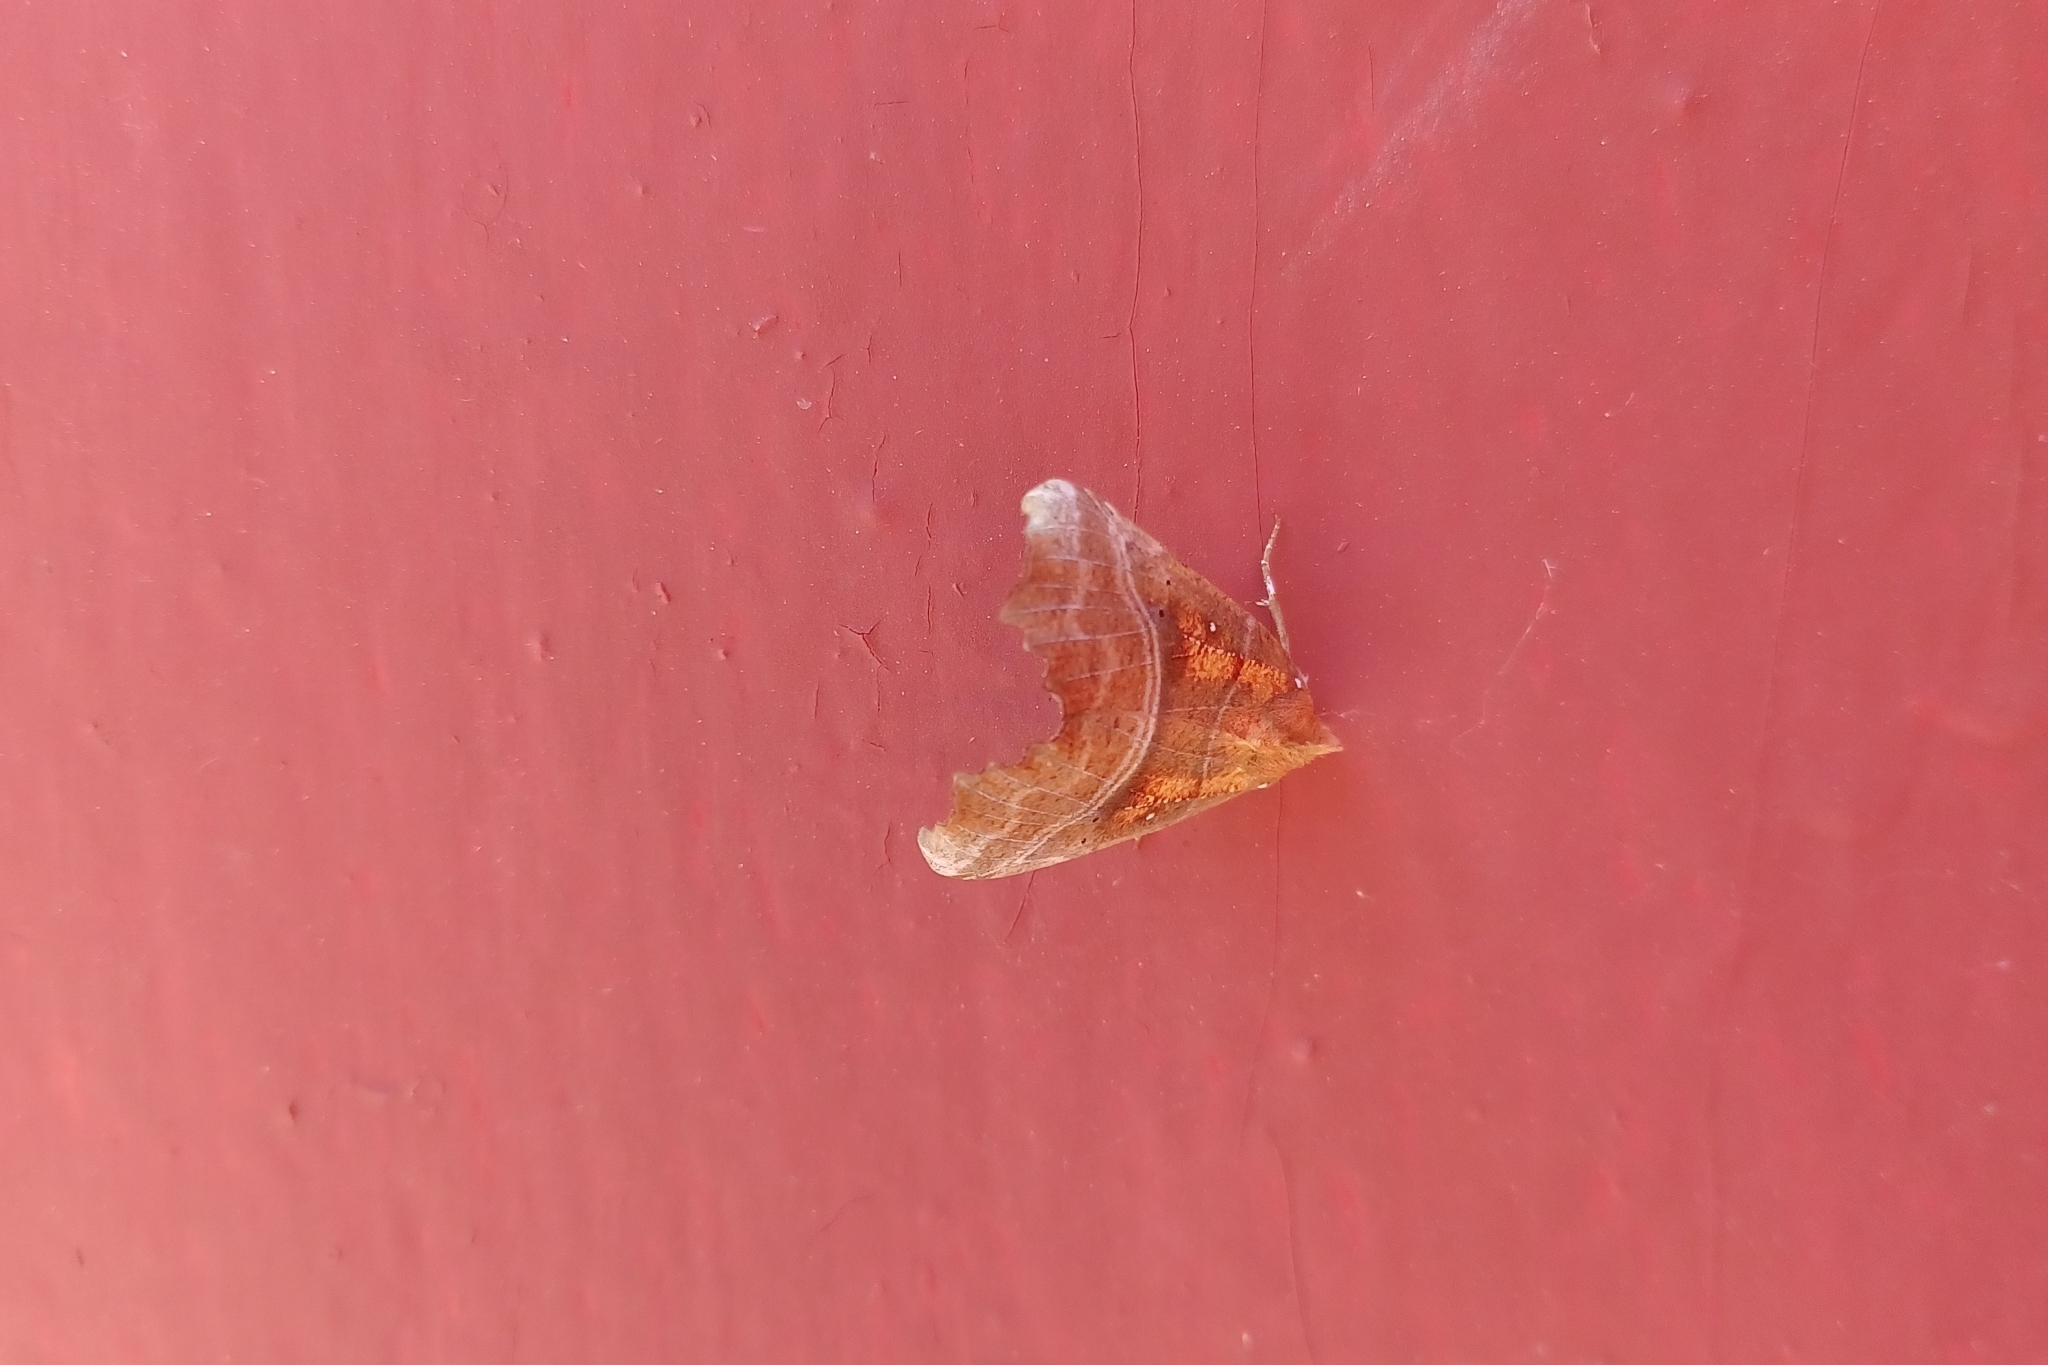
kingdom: Animalia
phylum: Arthropoda
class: Insecta
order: Lepidoptera
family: Erebidae
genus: Scoliopteryx
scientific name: Scoliopteryx libatrix
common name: Herald
